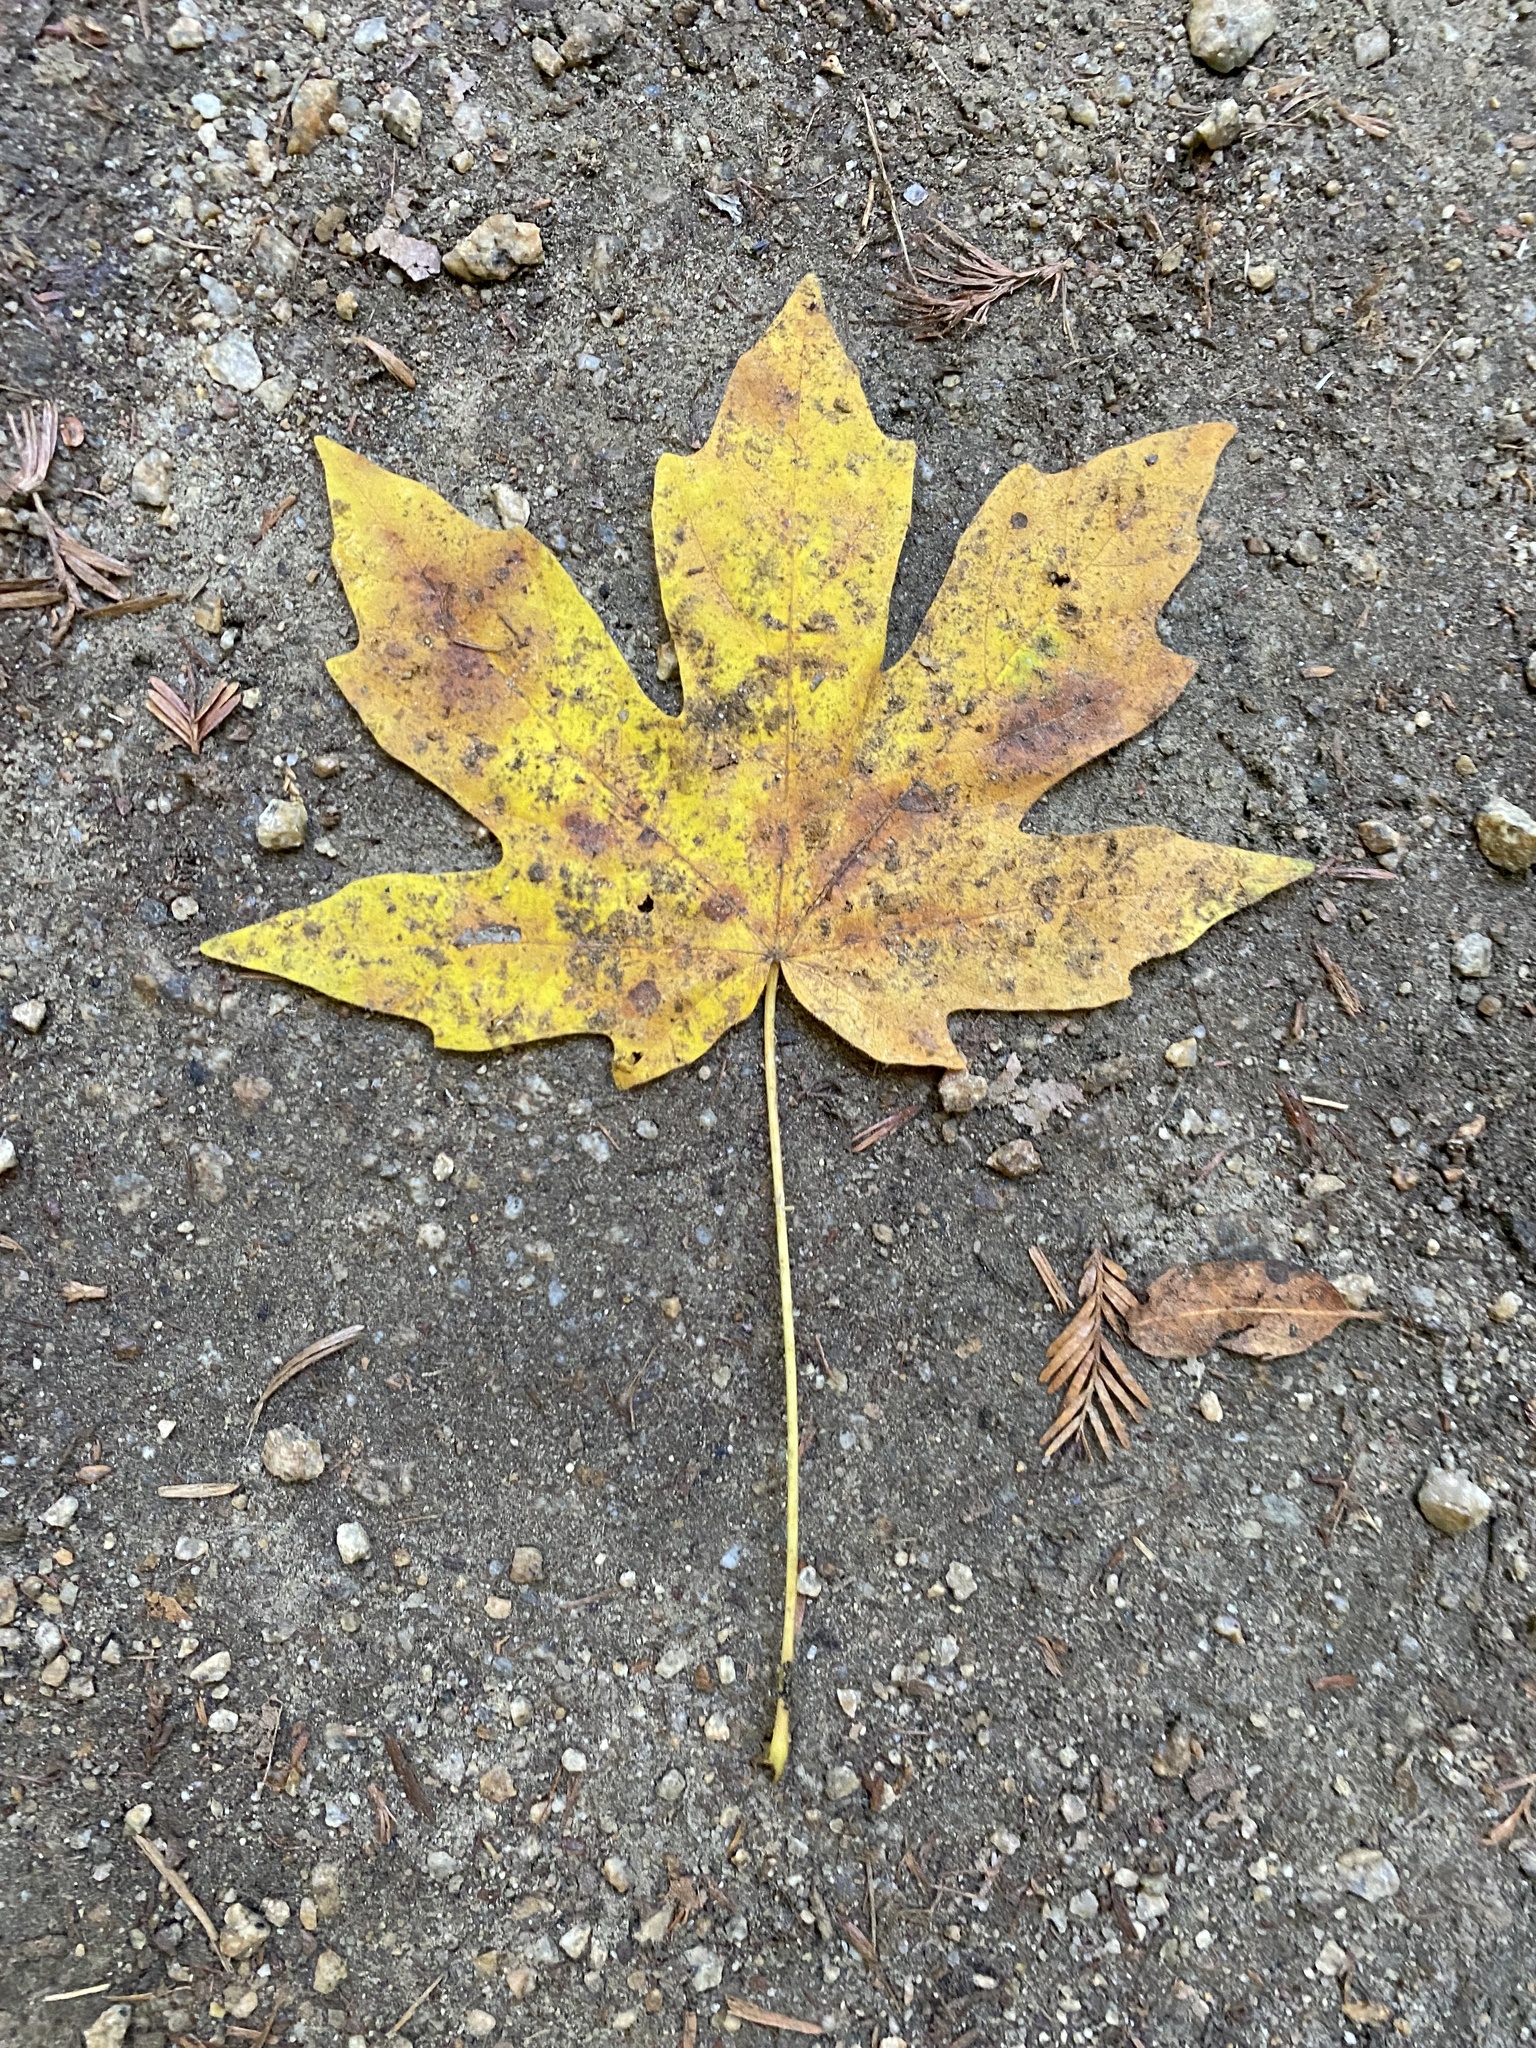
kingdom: Plantae
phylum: Tracheophyta
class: Magnoliopsida
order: Sapindales
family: Sapindaceae
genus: Acer
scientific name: Acer macrophyllum
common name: Oregon maple
